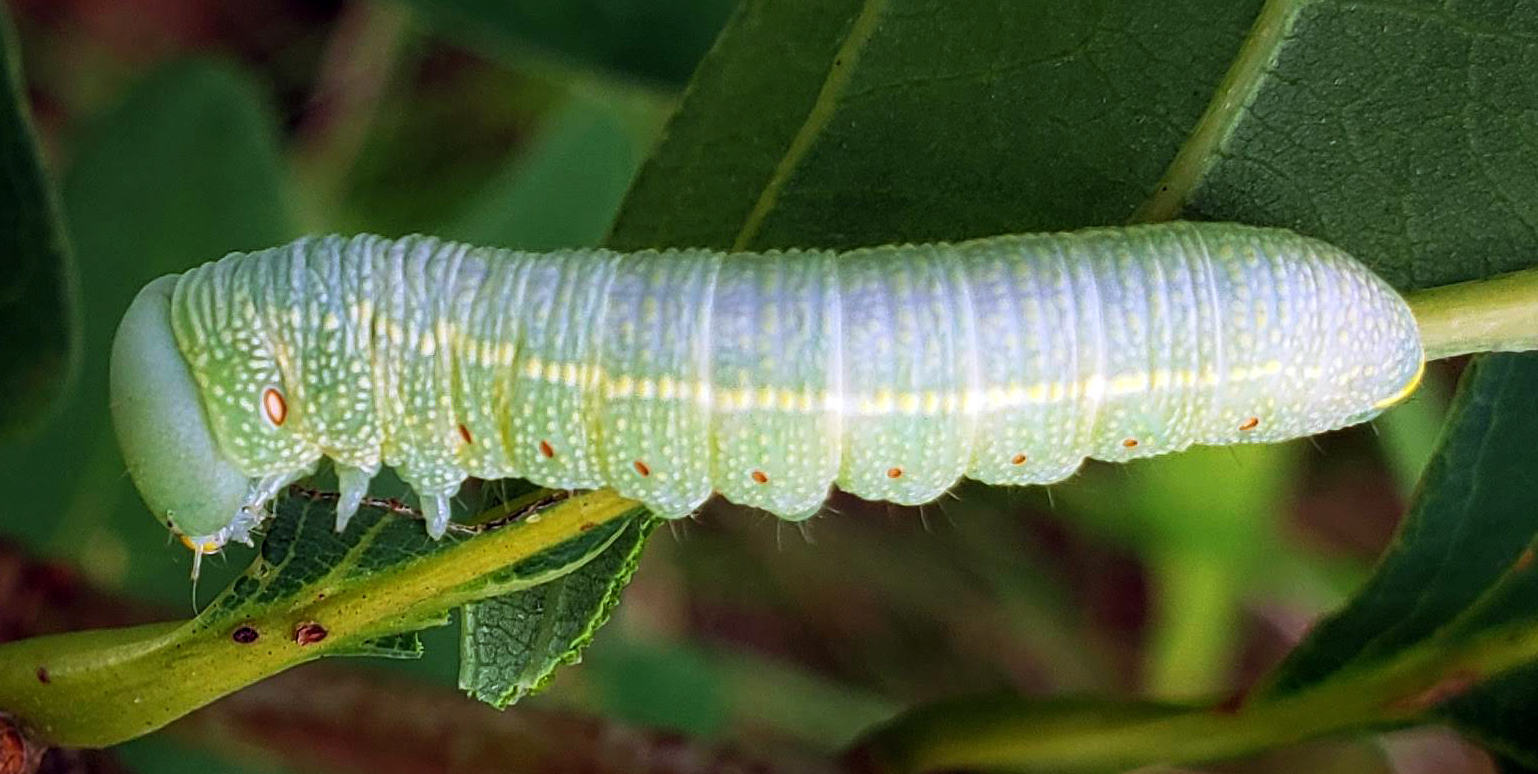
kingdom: Animalia
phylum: Arthropoda
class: Insecta
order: Lepidoptera
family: Notodontidae
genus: Nadata
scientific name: Nadata gibbosa
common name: White-dotted prominent
